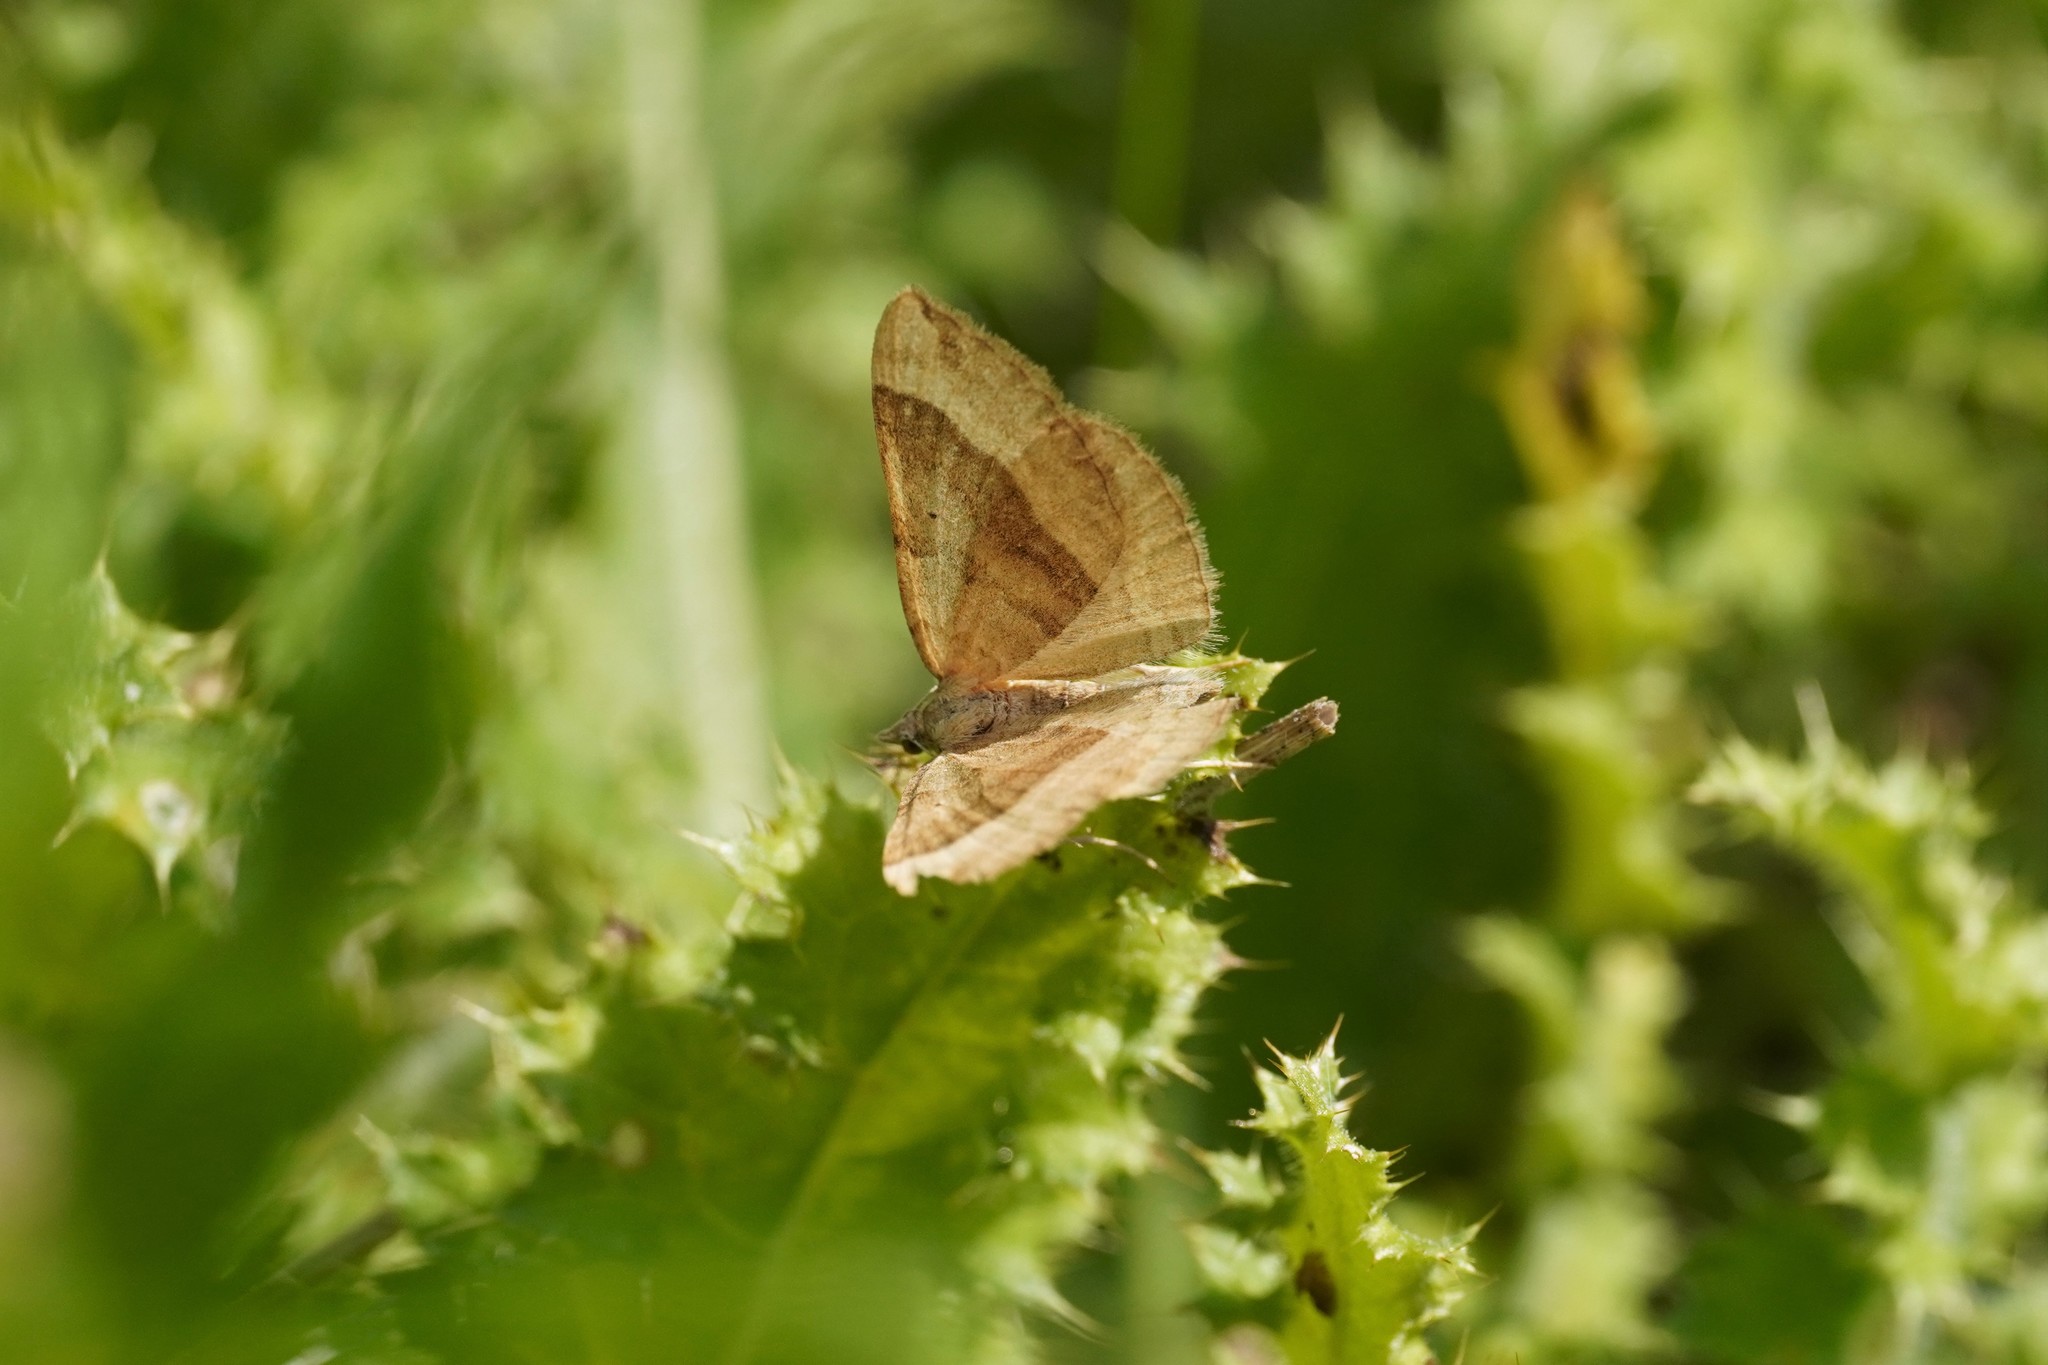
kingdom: Animalia
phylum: Arthropoda
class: Insecta
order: Lepidoptera
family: Geometridae
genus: Scotopteryx
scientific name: Scotopteryx chenopodiata
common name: Shaded broad-bar
